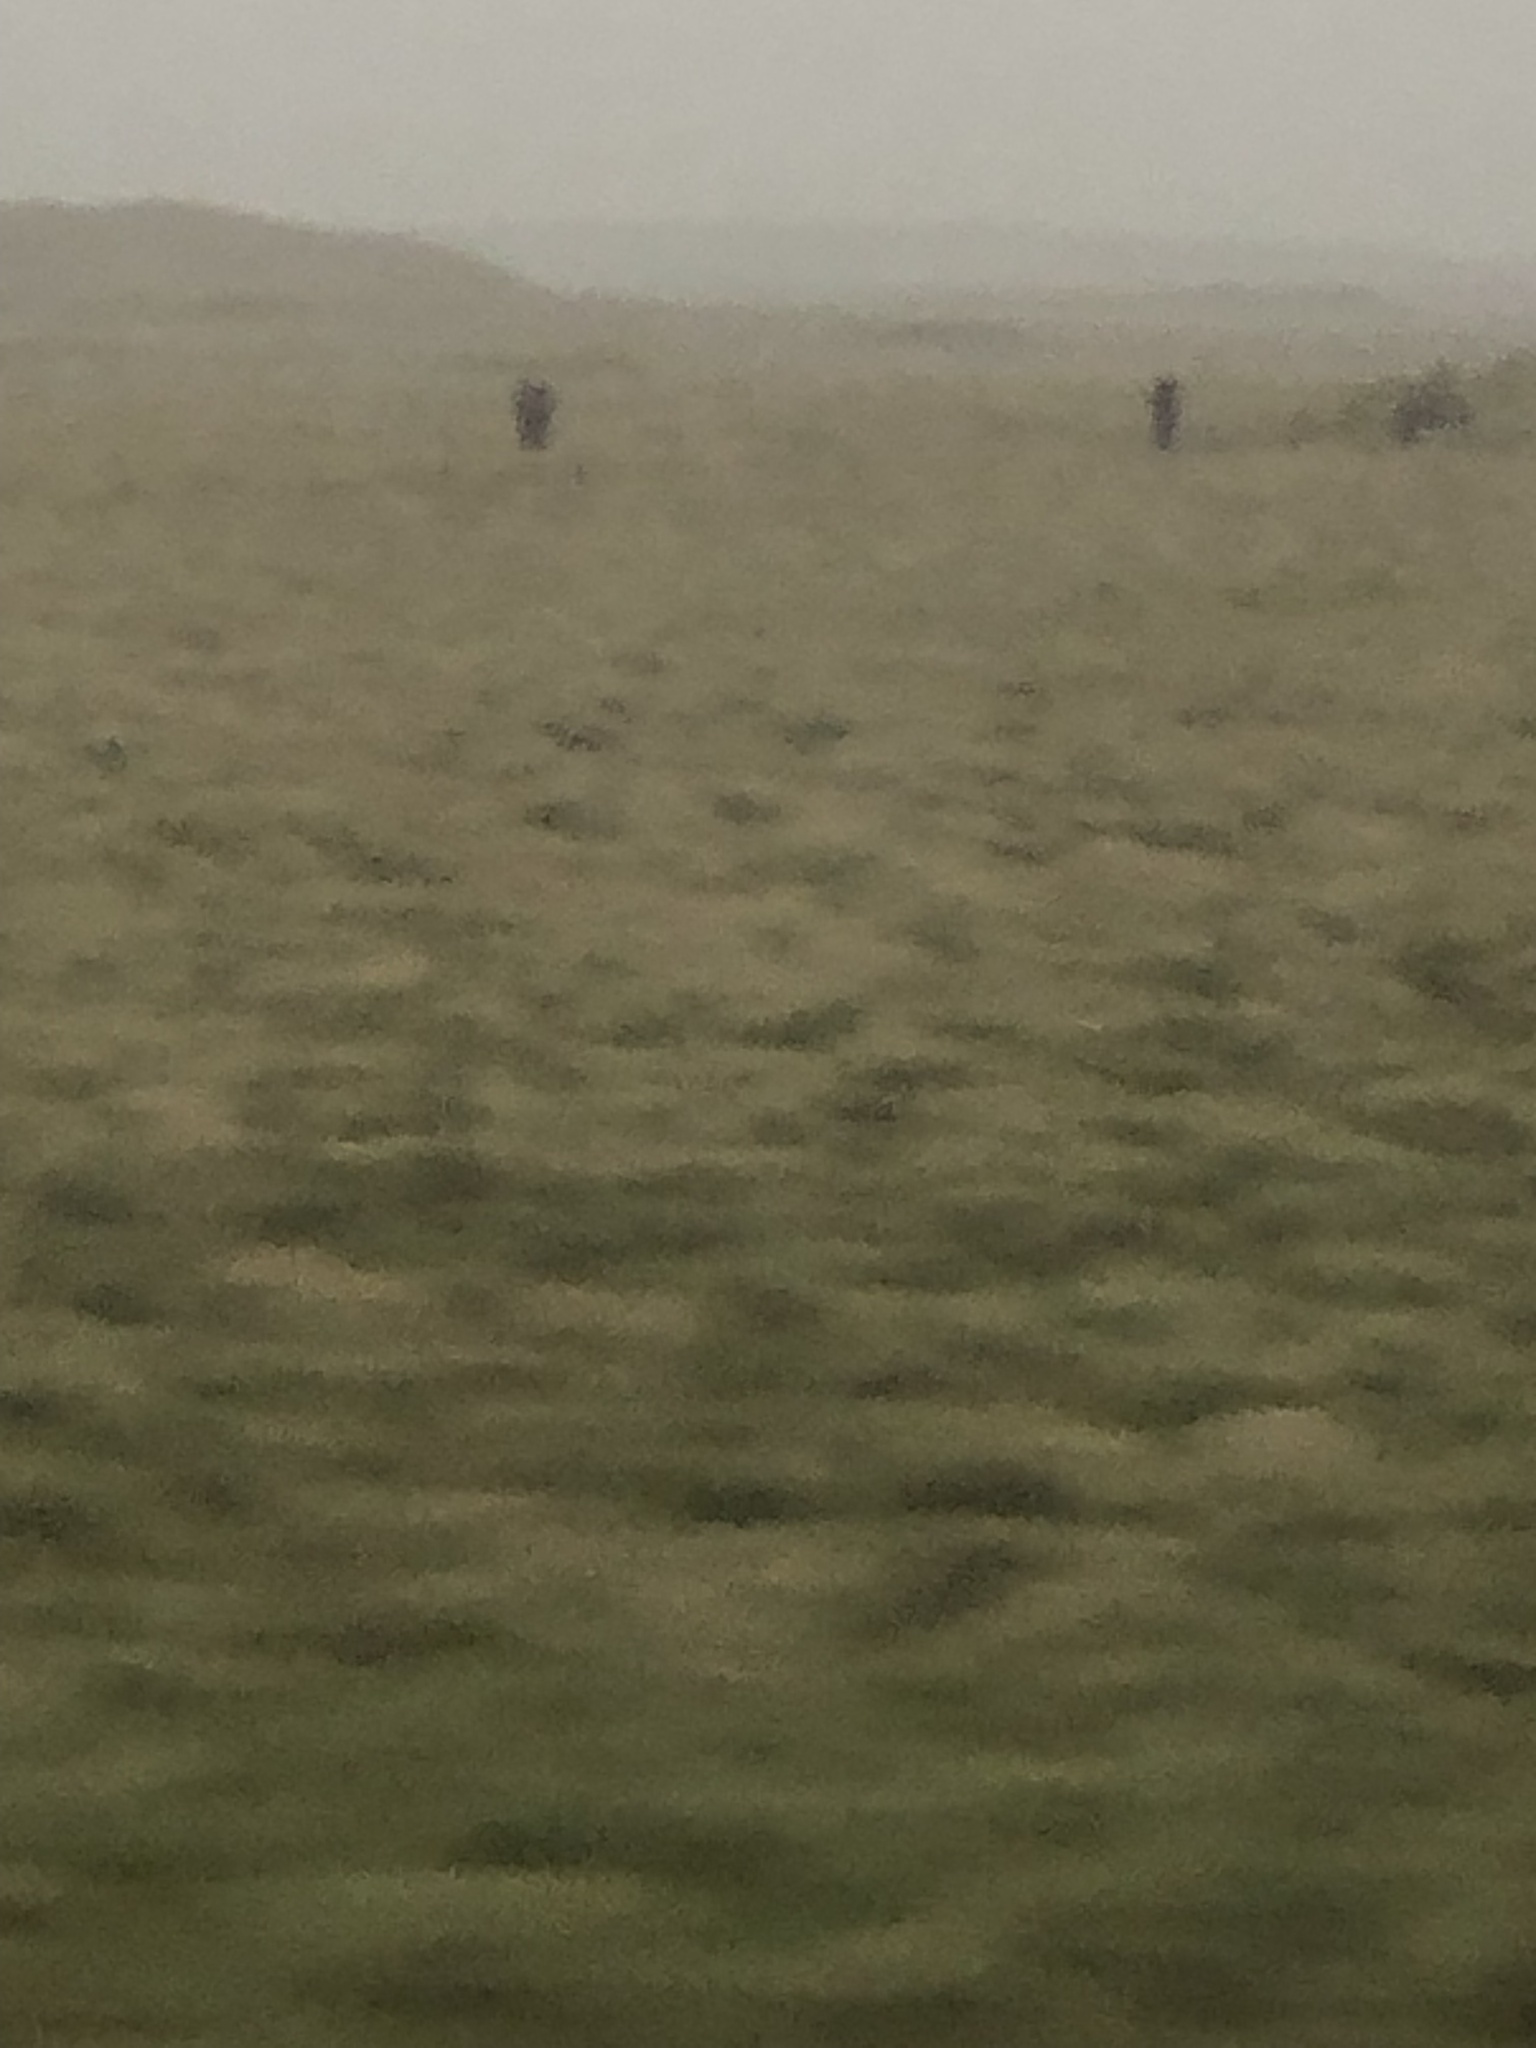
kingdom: Animalia
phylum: Chordata
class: Mammalia
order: Artiodactyla
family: Bovidae
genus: Ovis
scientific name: Ovis aries
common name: Domestic sheep
